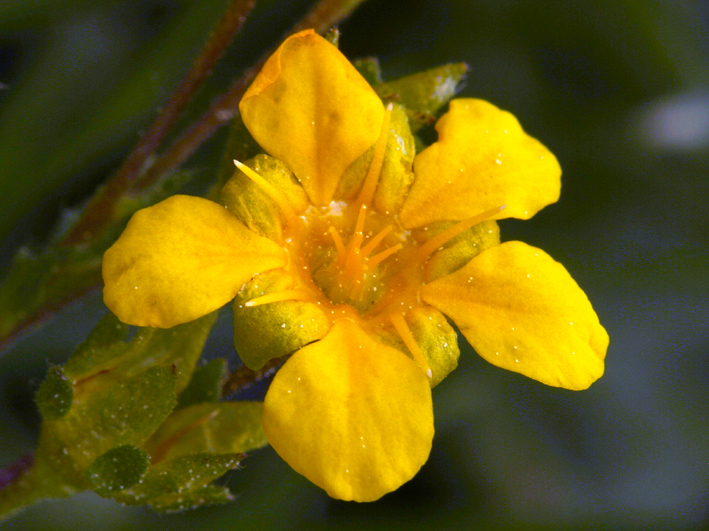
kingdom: Plantae
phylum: Tracheophyta
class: Magnoliopsida
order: Rosales
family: Rosaceae
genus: Potentilla
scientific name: Potentilla lycopodioides
